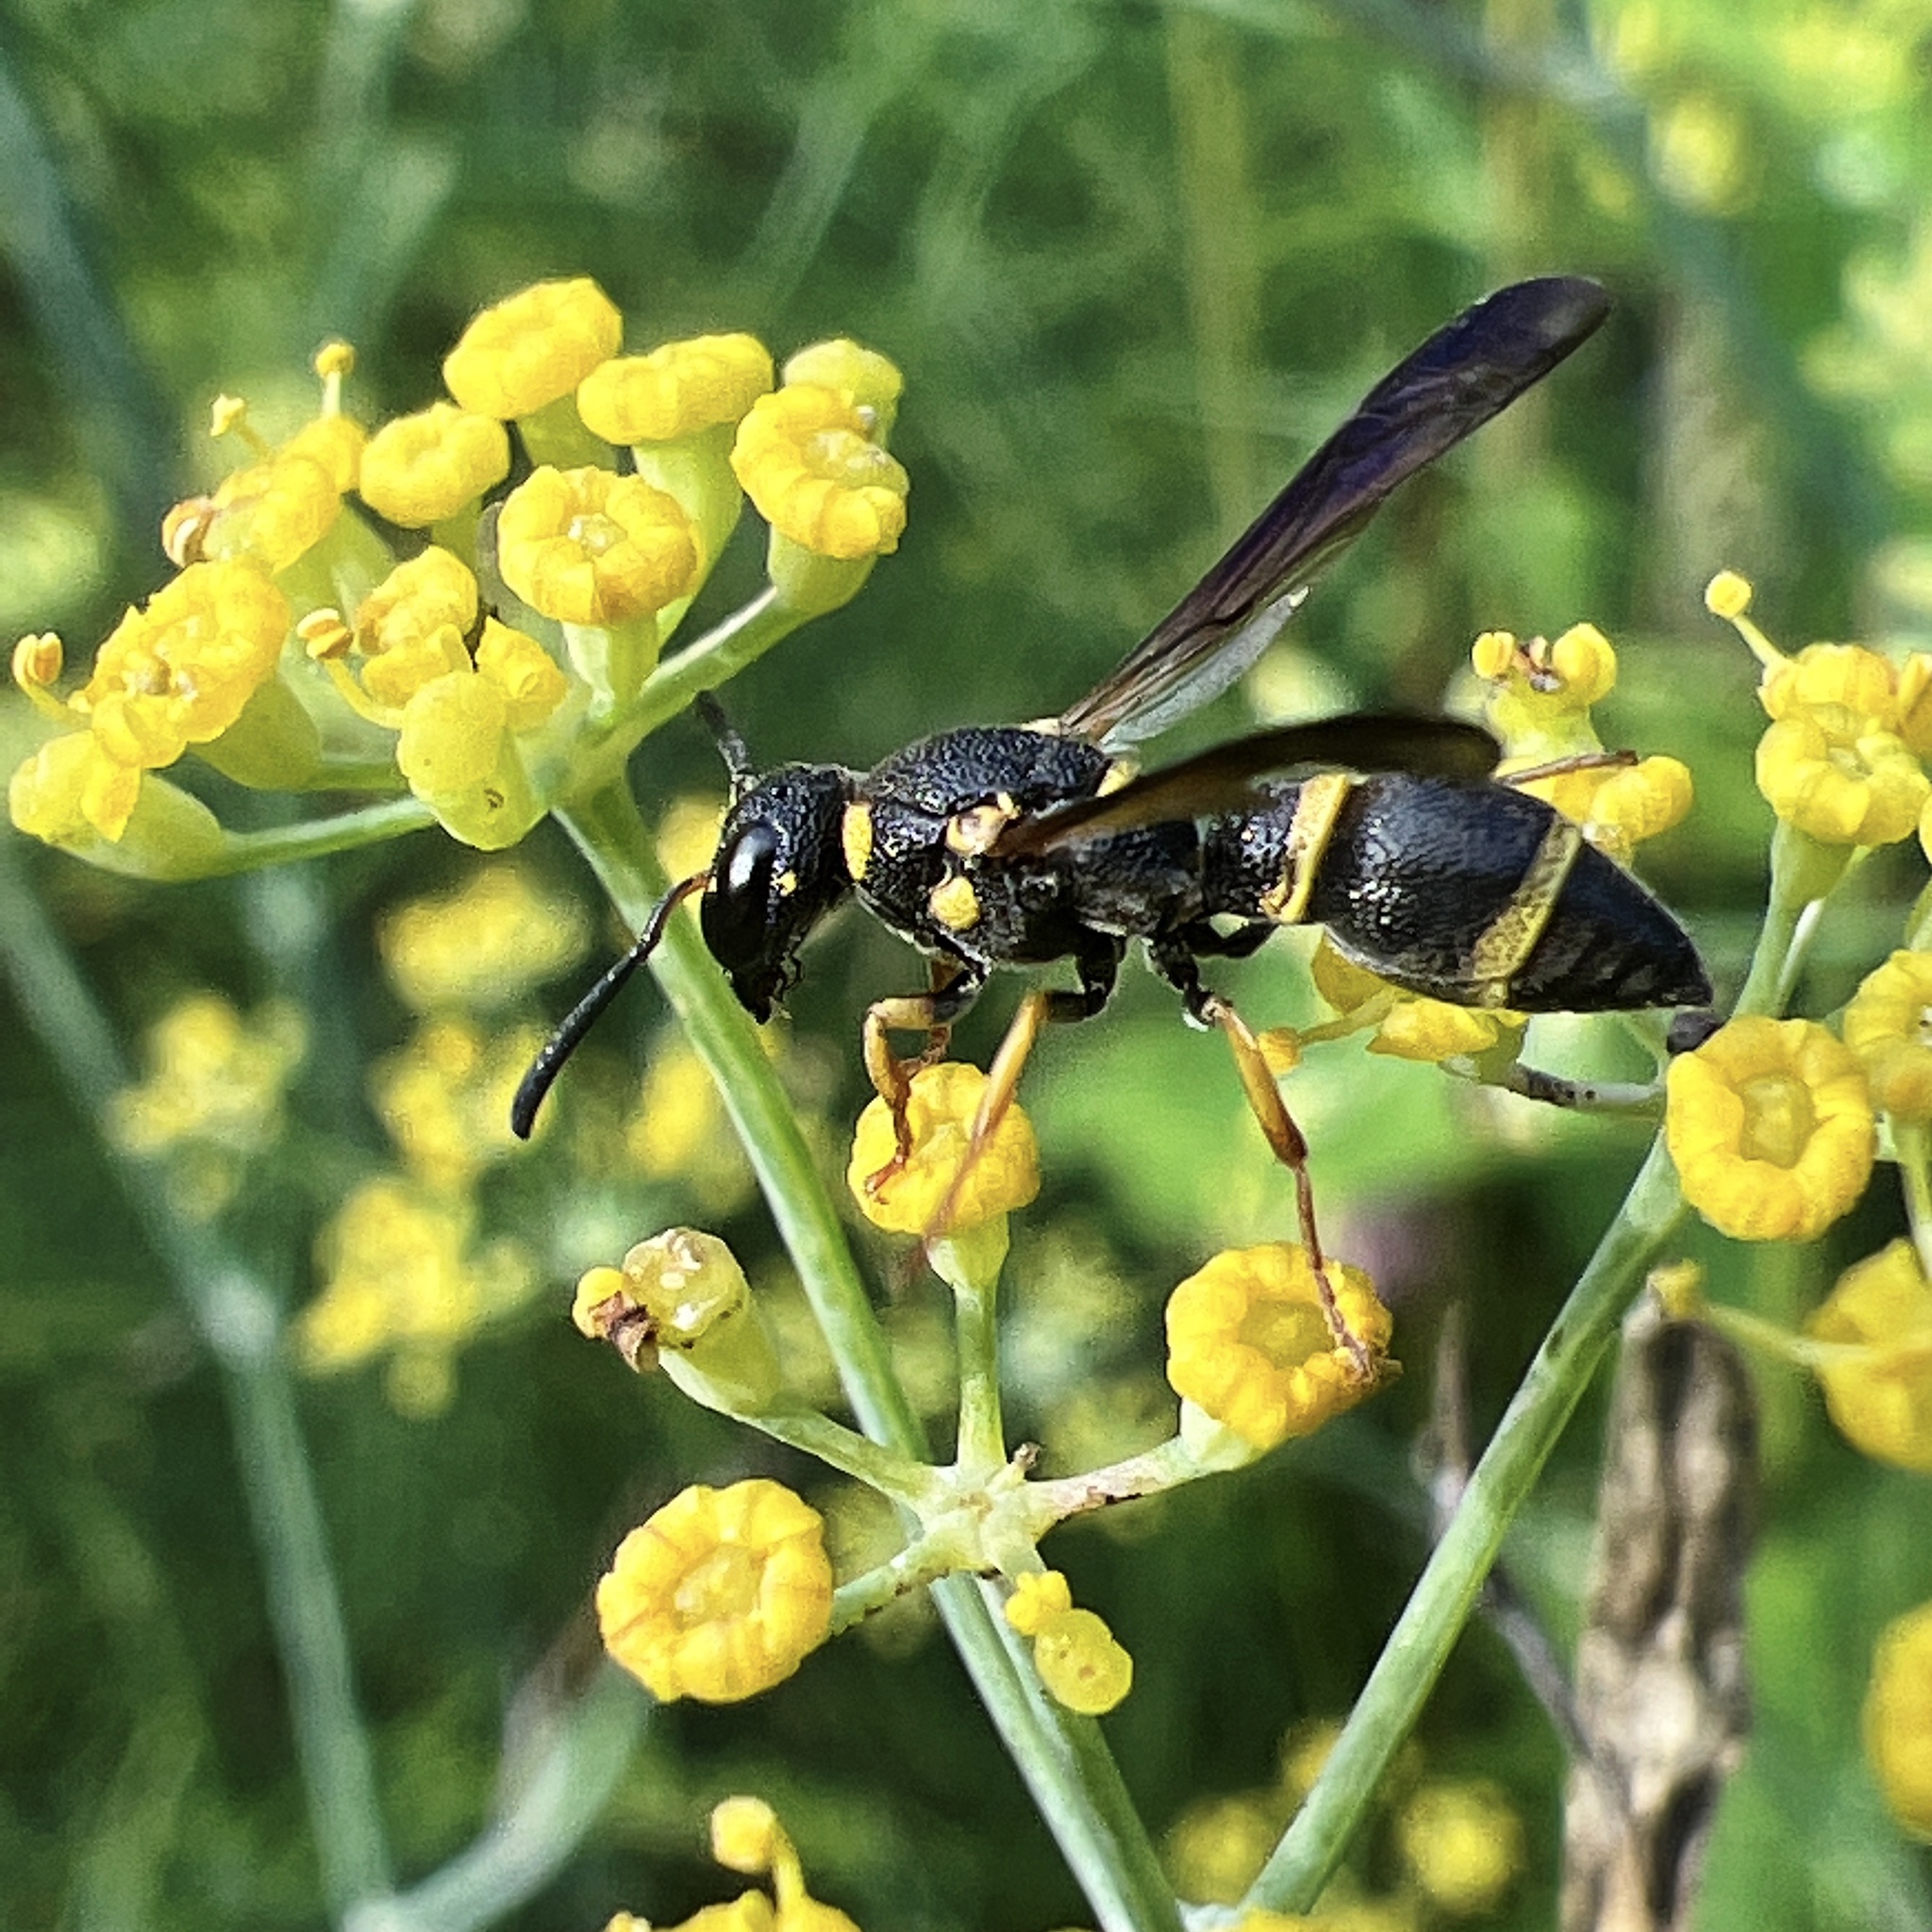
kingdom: Animalia
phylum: Arthropoda
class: Insecta
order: Hymenoptera
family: Eumenidae
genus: Parancistrocerus
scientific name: Parancistrocerus perennis
